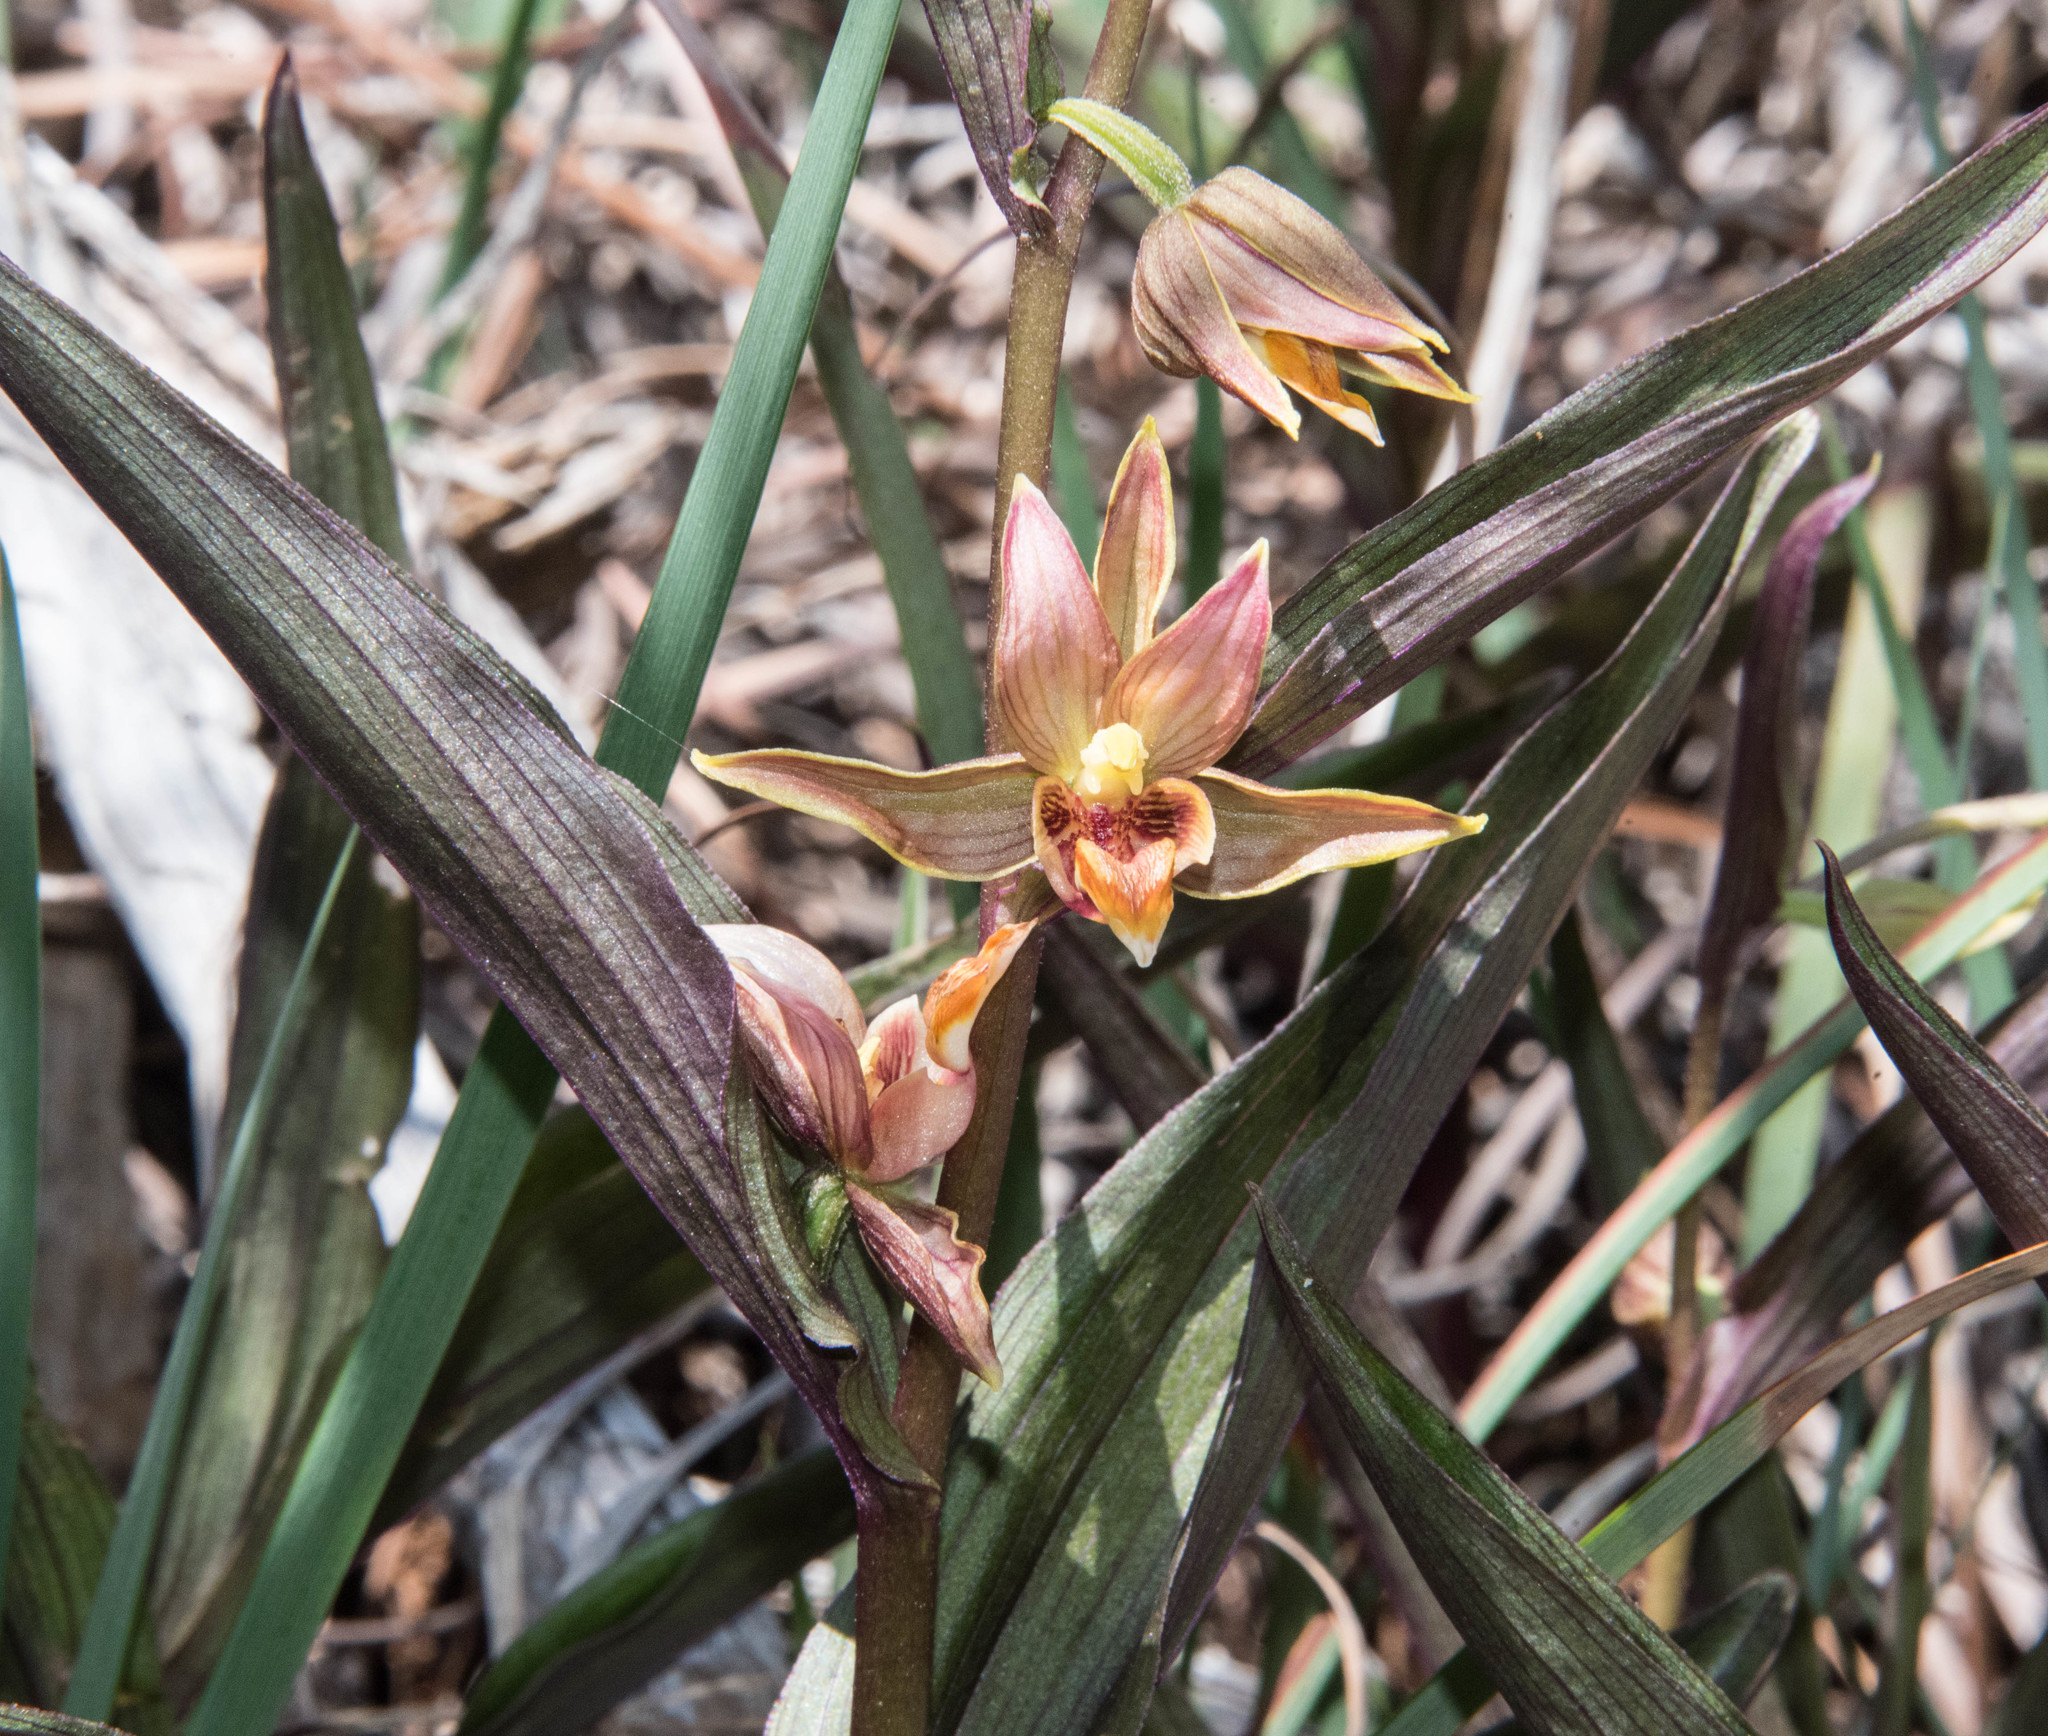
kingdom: Plantae
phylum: Tracheophyta
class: Liliopsida
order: Asparagales
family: Orchidaceae
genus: Epipactis
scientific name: Epipactis gigantea
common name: Chatterbox
